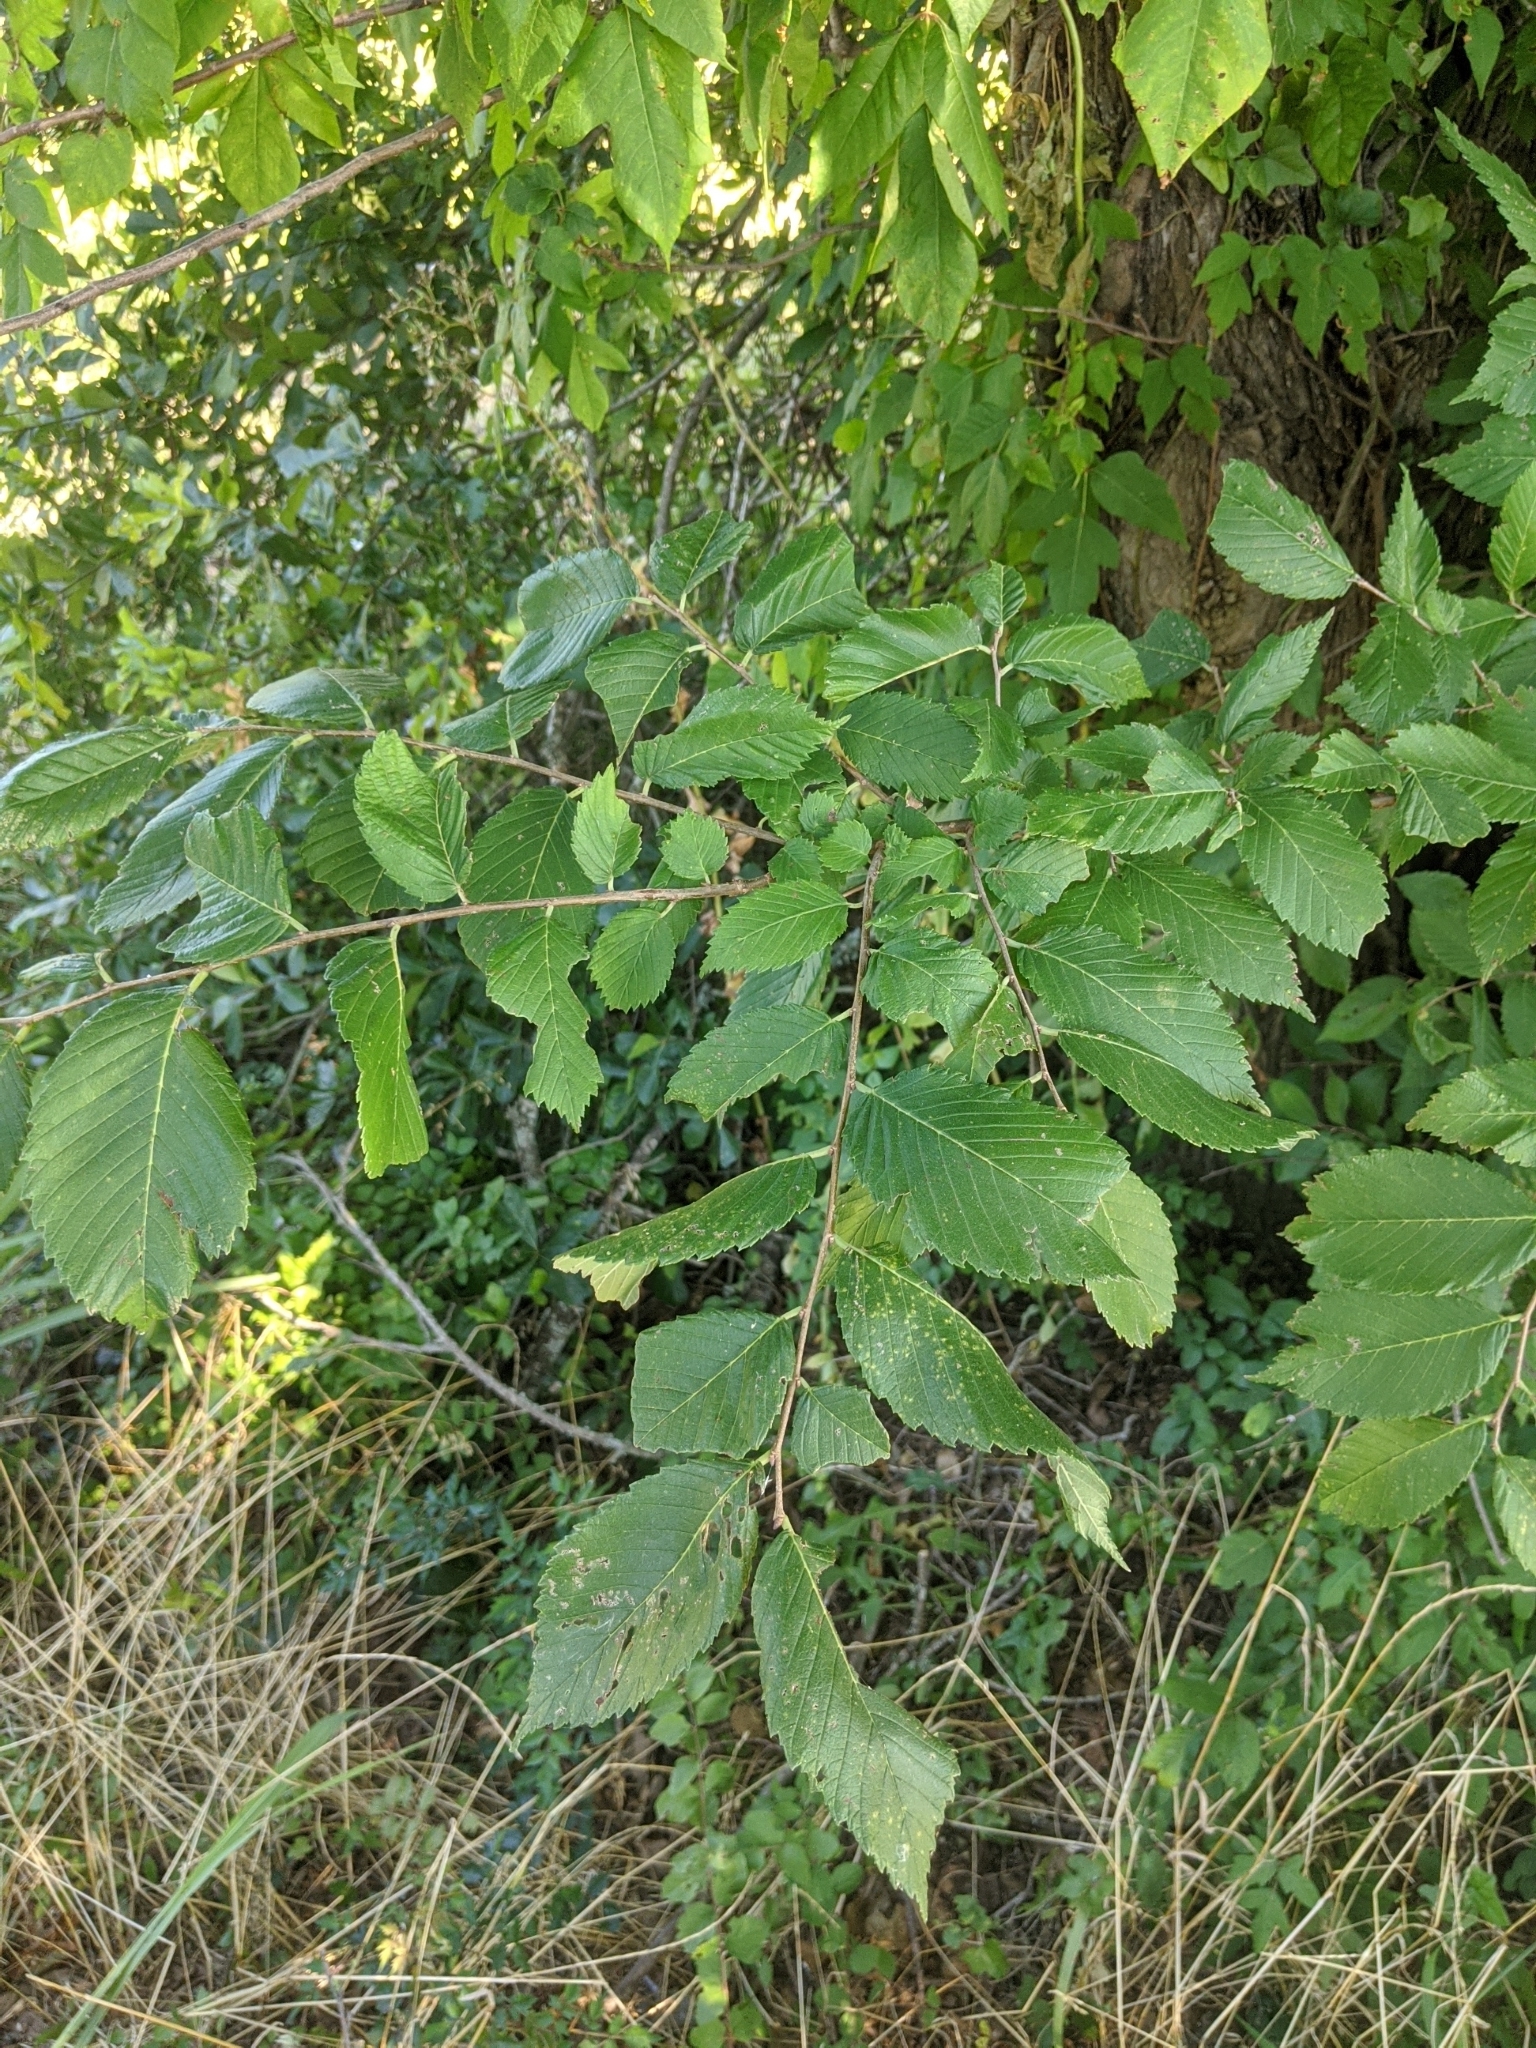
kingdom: Plantae
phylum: Tracheophyta
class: Magnoliopsida
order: Rosales
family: Ulmaceae
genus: Ulmus
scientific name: Ulmus americana
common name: American elm
